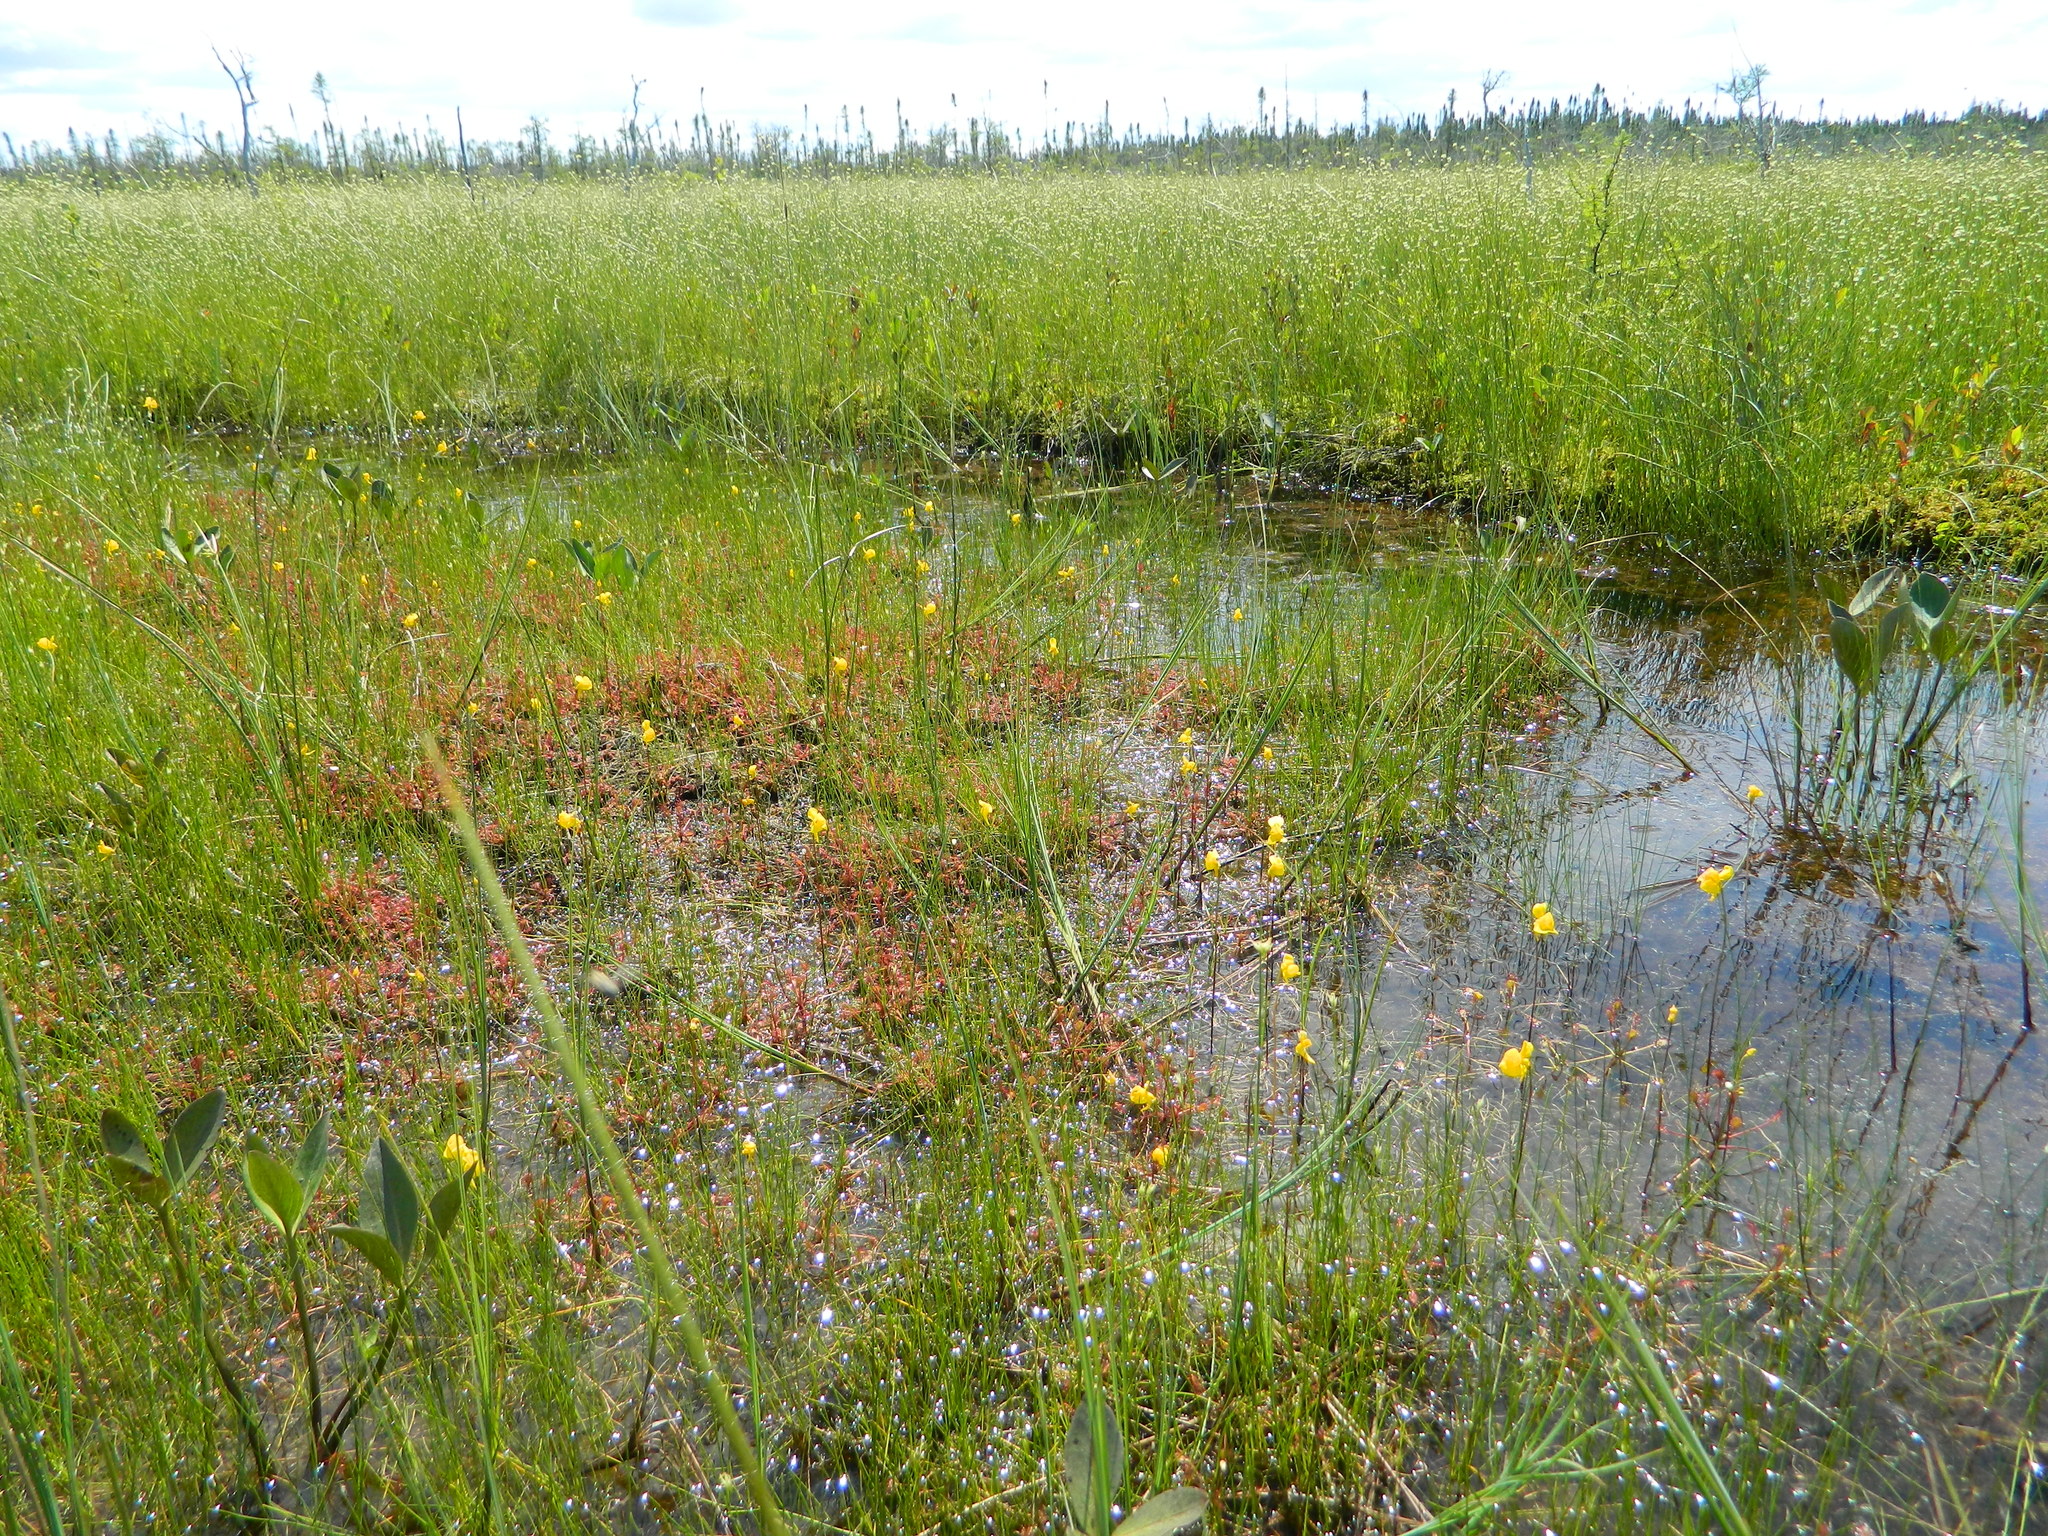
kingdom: Plantae
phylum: Tracheophyta
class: Magnoliopsida
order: Lamiales
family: Lentibulariaceae
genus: Utricularia
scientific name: Utricularia cornuta
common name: Horned bladderwort
